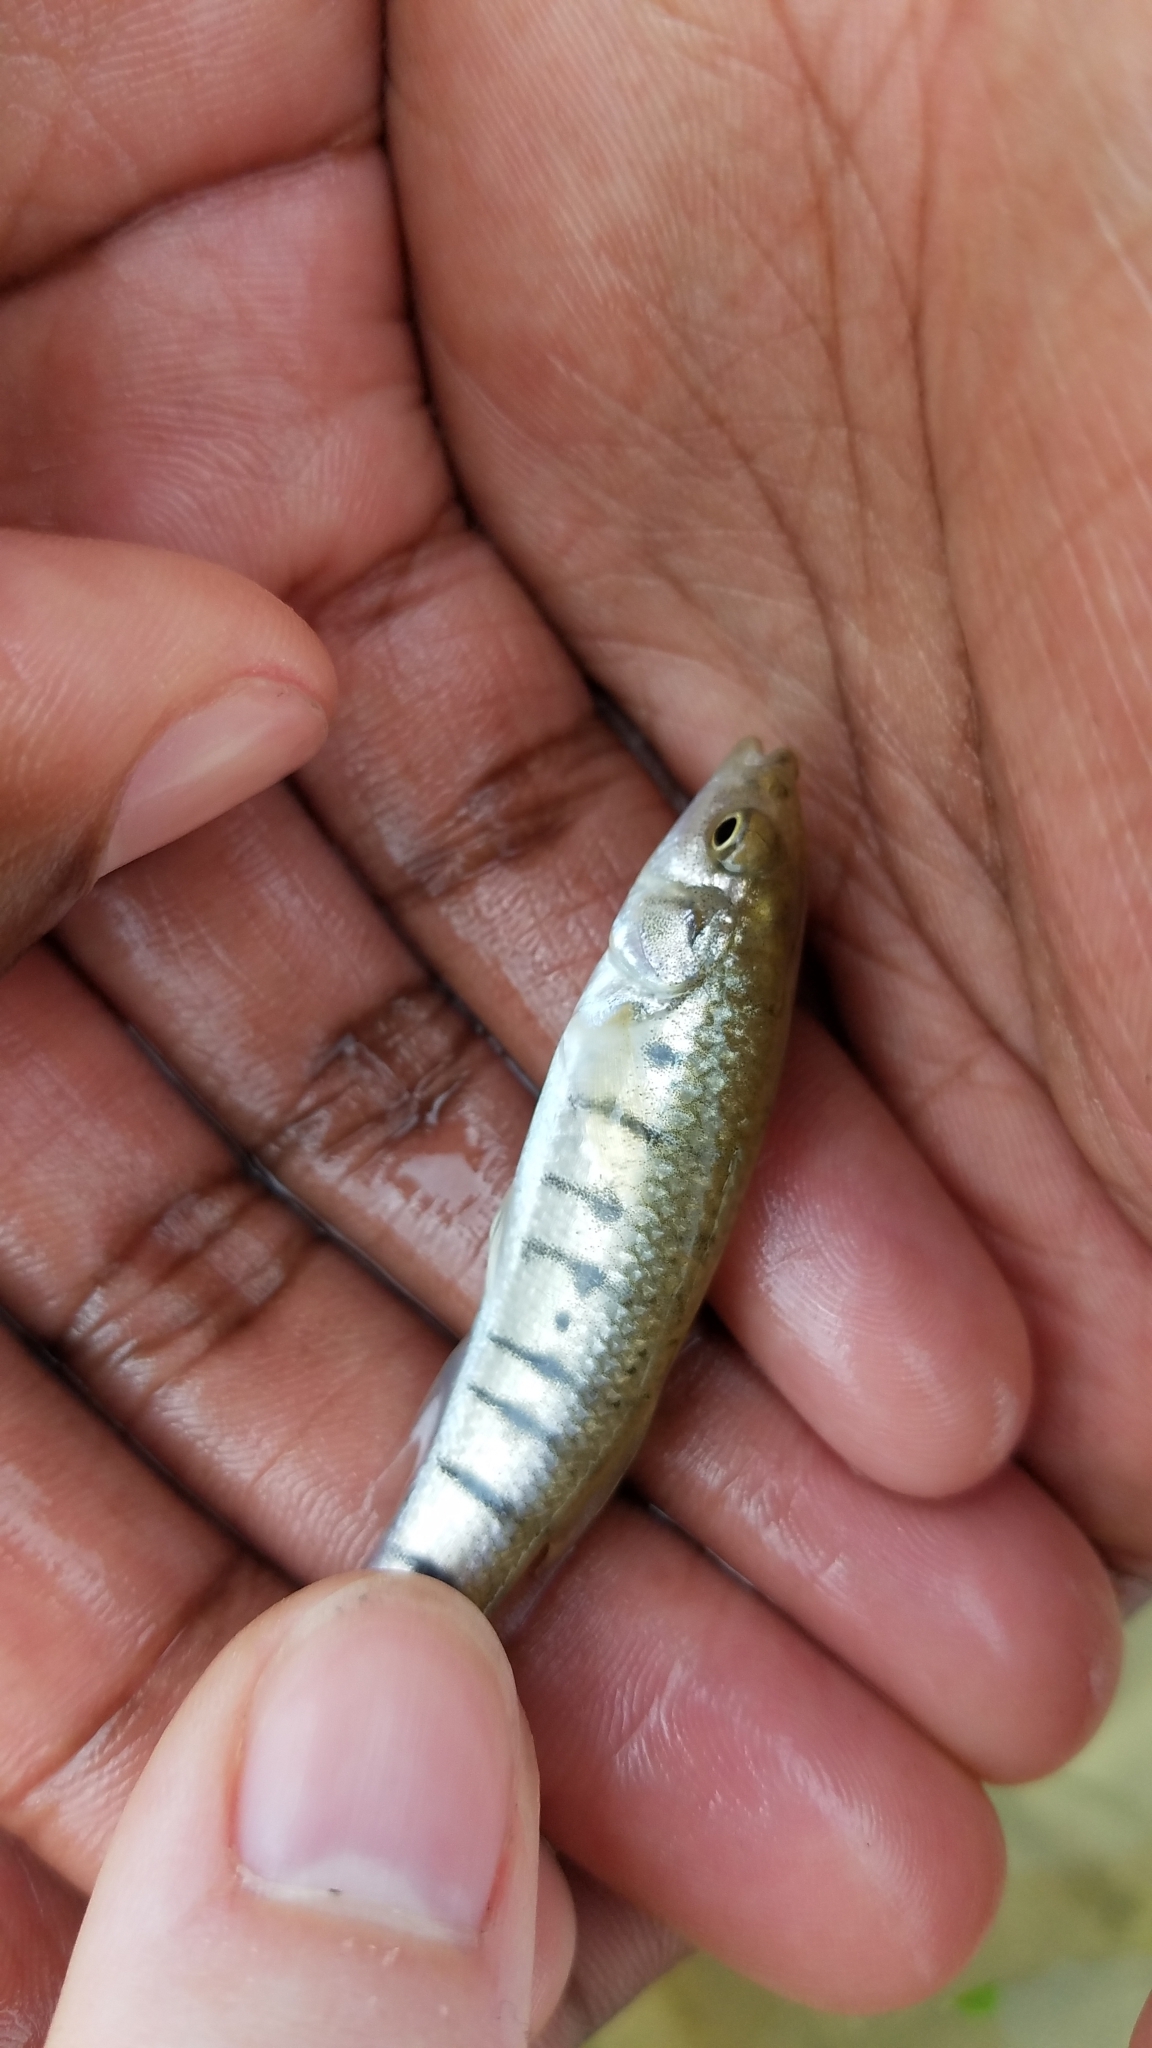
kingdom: Animalia
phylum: Chordata
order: Cyprinodontiformes
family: Fundulidae
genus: Fundulus
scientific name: Fundulus majalis
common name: Striped killifish
